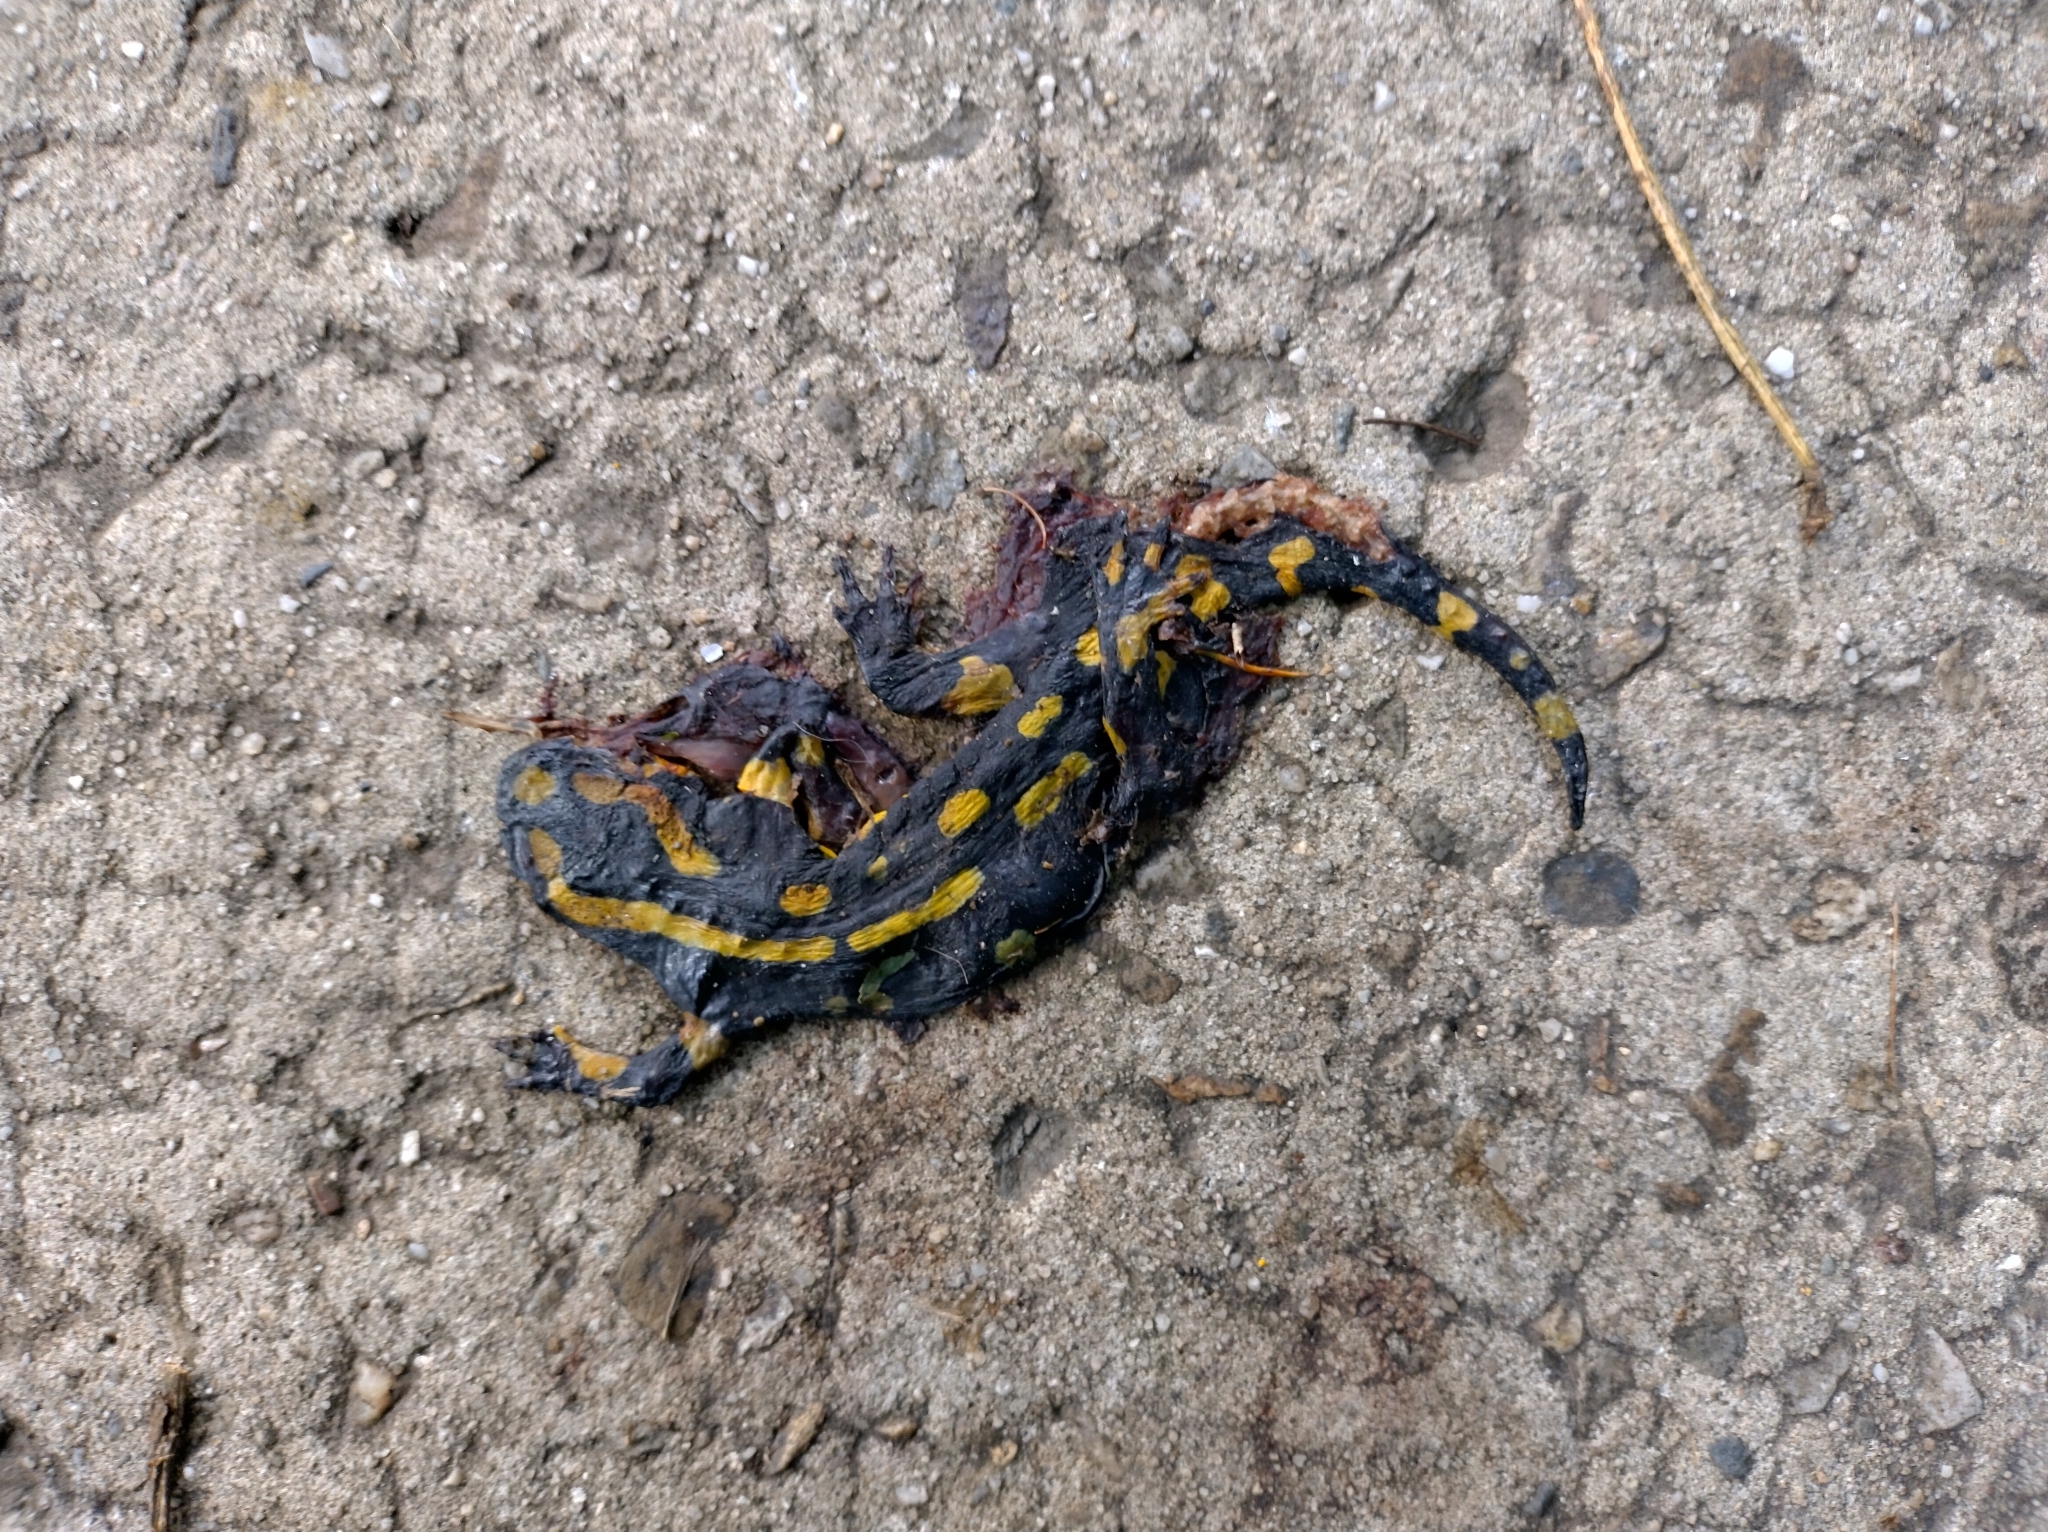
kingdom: Animalia
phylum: Chordata
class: Amphibia
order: Caudata
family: Salamandridae
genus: Salamandra
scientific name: Salamandra salamandra
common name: Fire salamander
